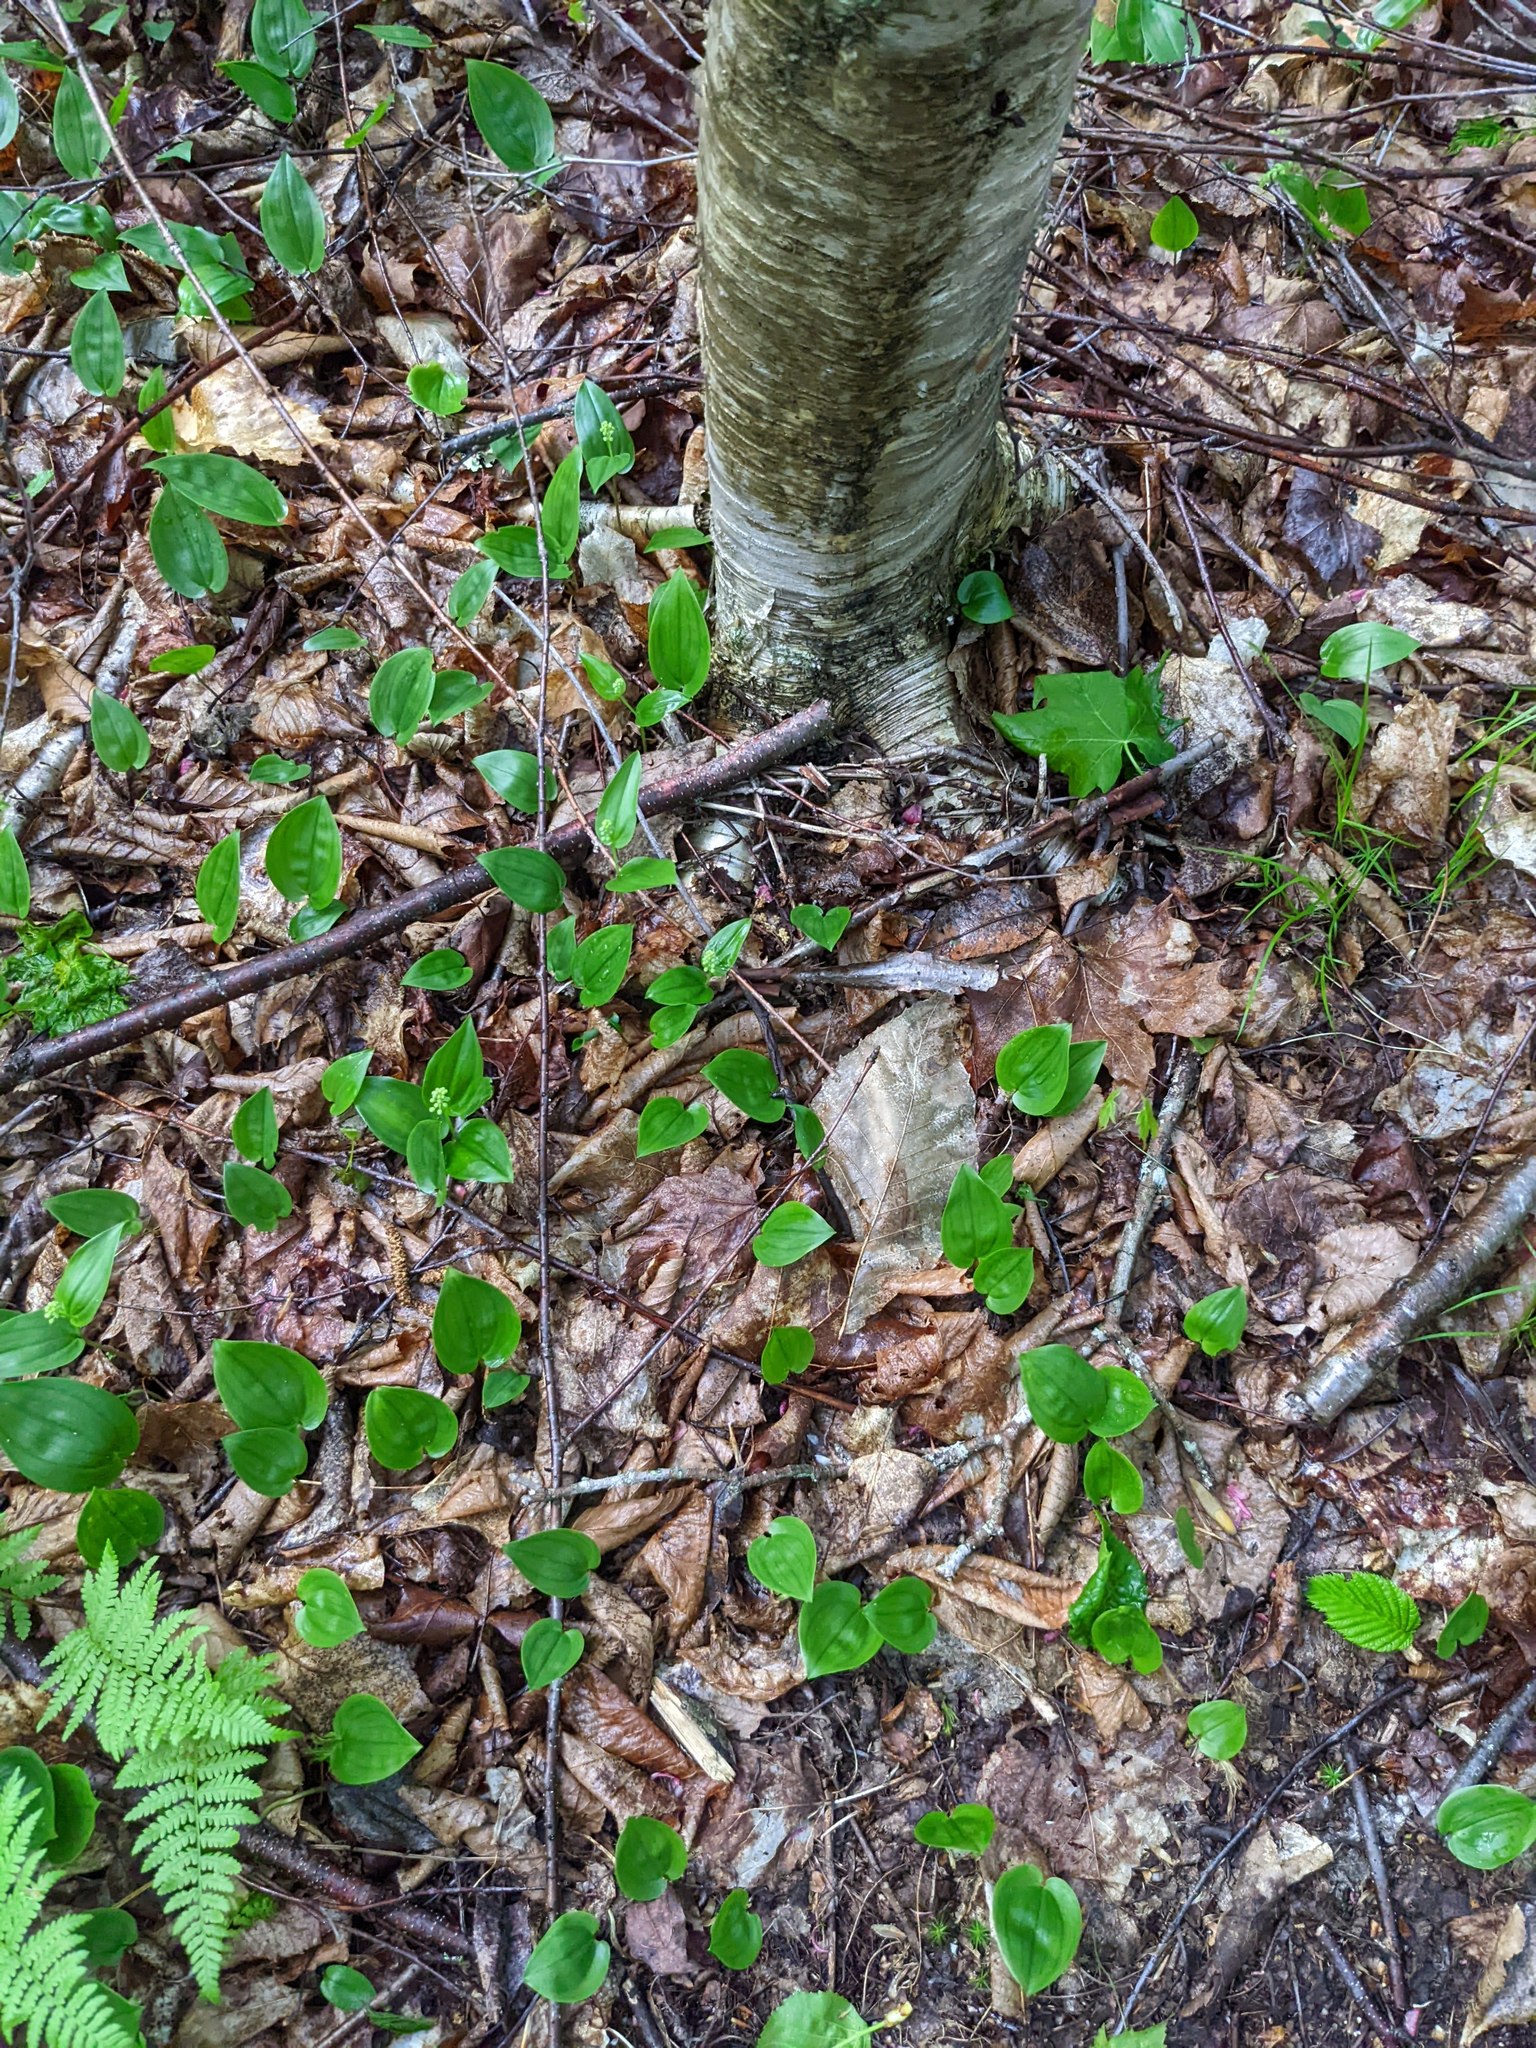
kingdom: Plantae
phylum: Tracheophyta
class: Liliopsida
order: Asparagales
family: Asparagaceae
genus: Maianthemum
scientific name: Maianthemum canadense
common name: False lily-of-the-valley
